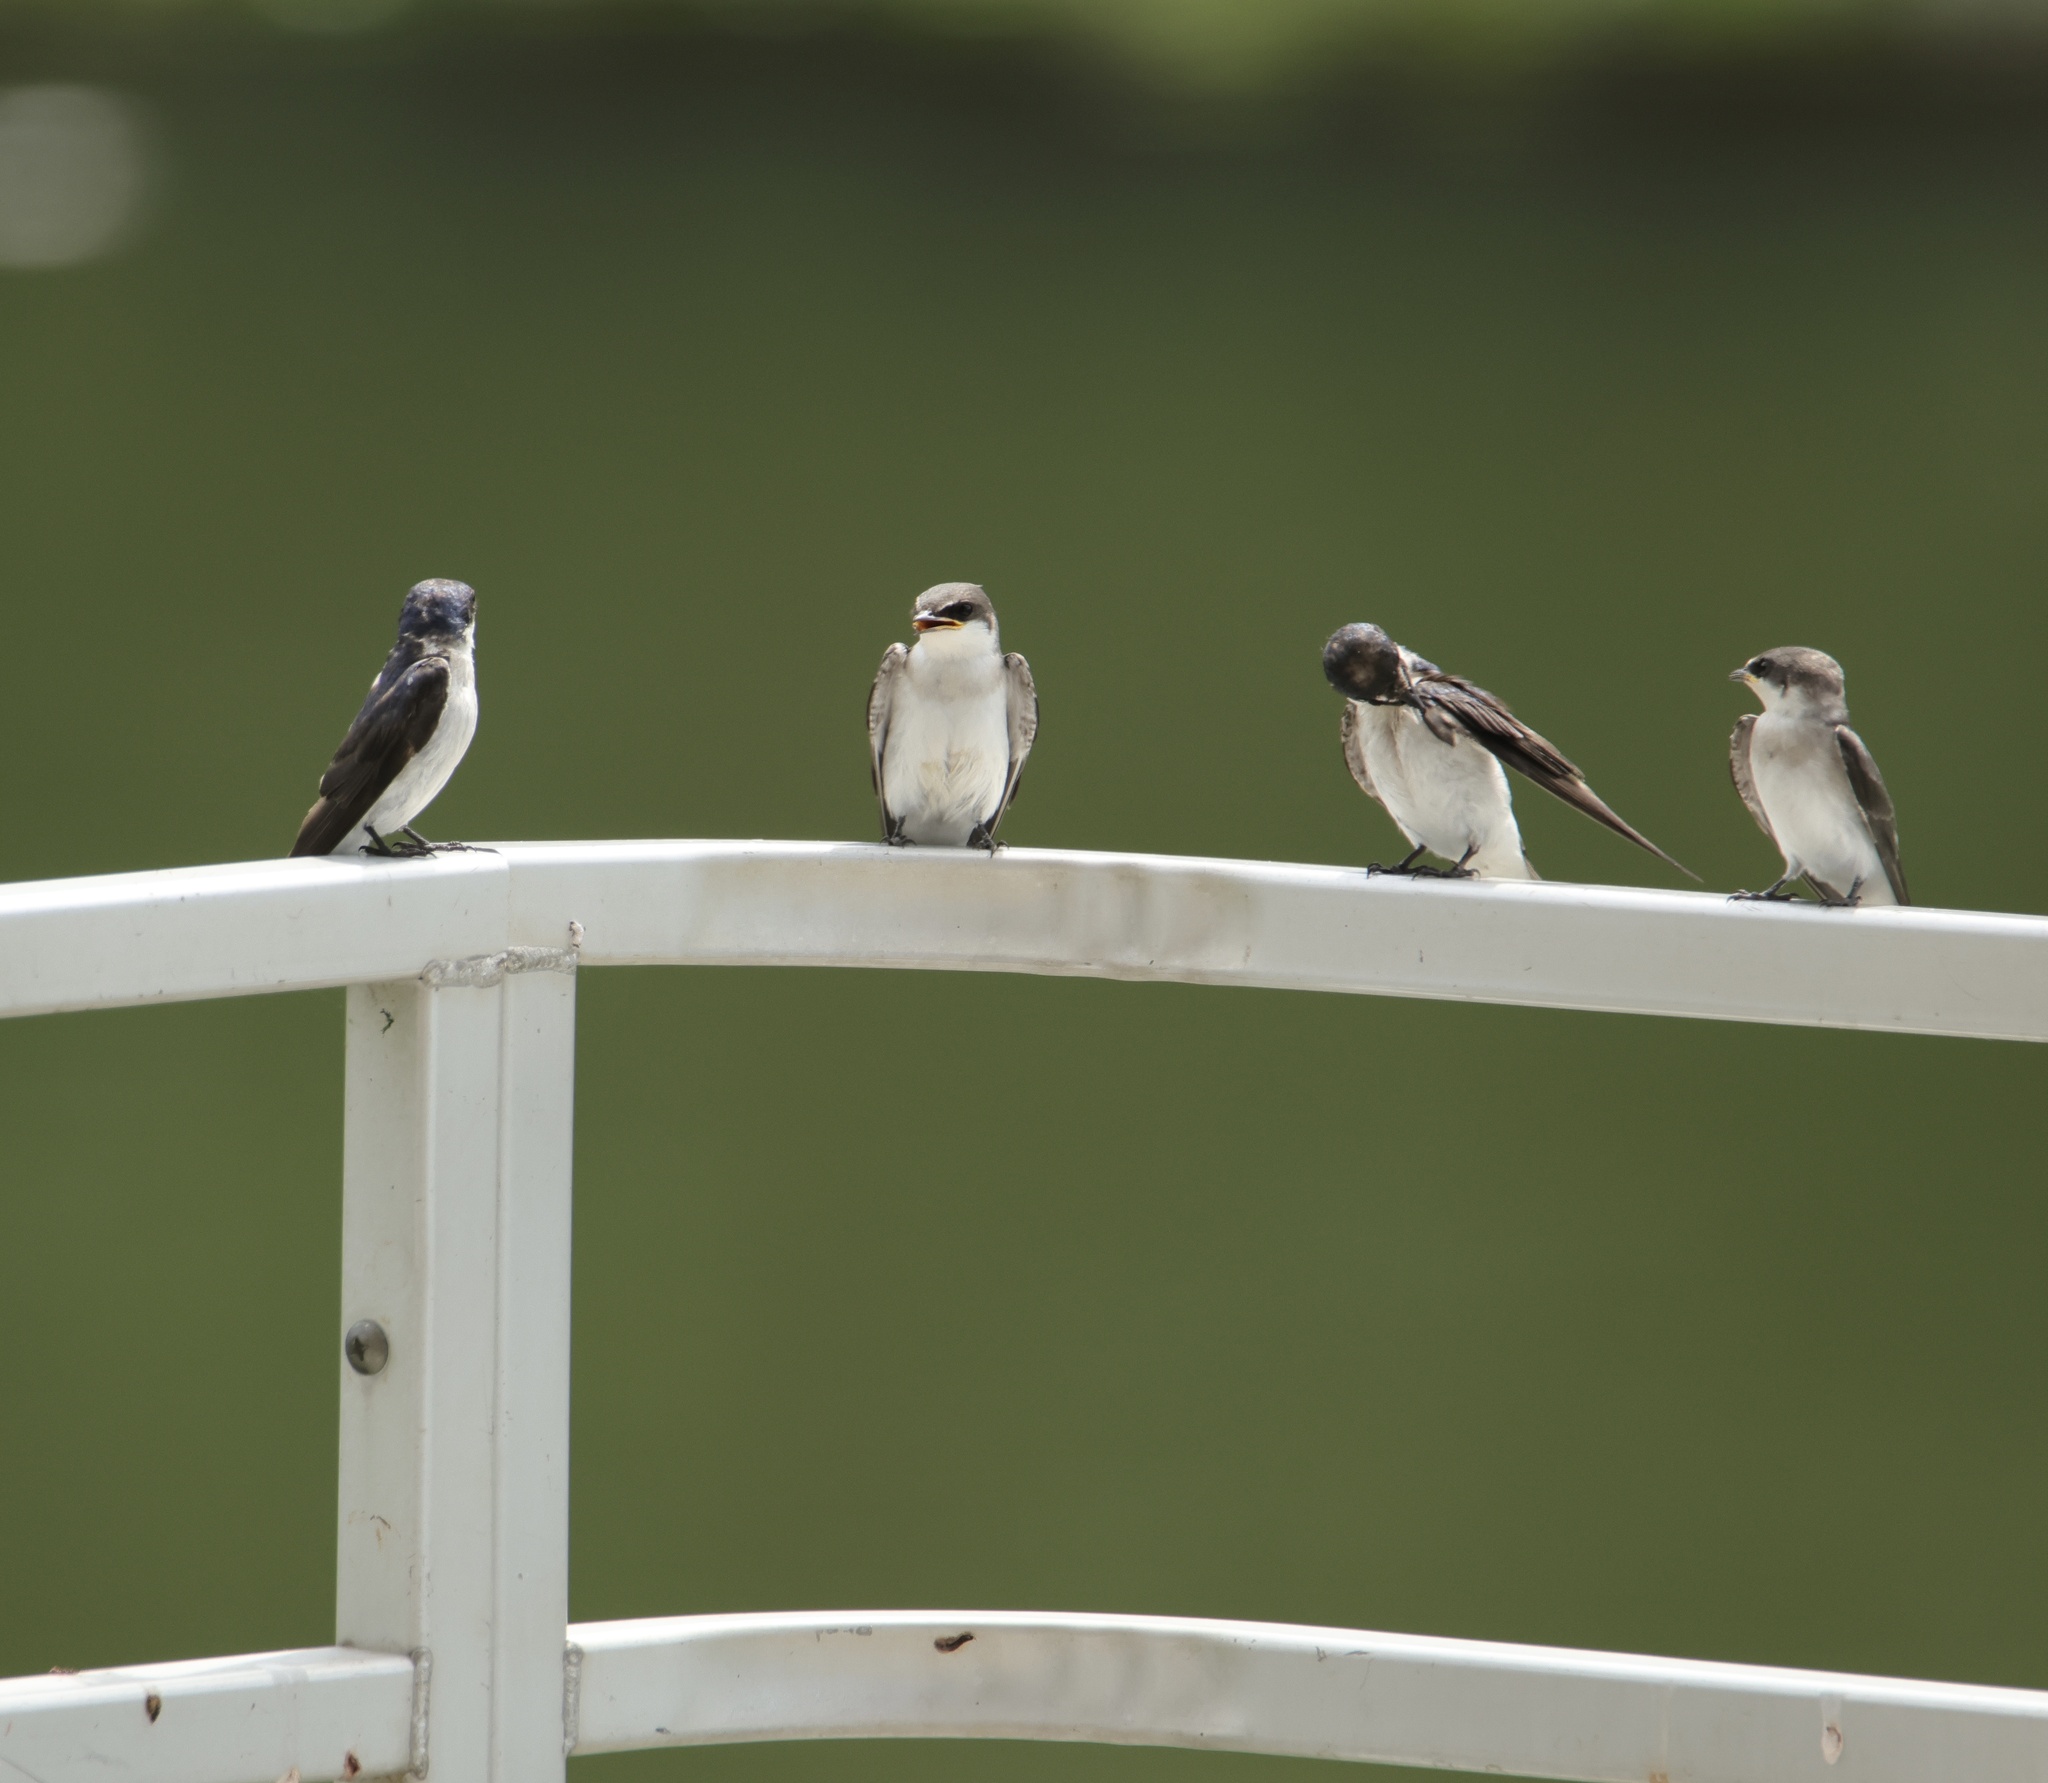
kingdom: Animalia
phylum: Chordata
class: Aves
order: Passeriformes
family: Hirundinidae
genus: Tachycineta
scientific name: Tachycineta albilinea
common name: Mangrove swallow
